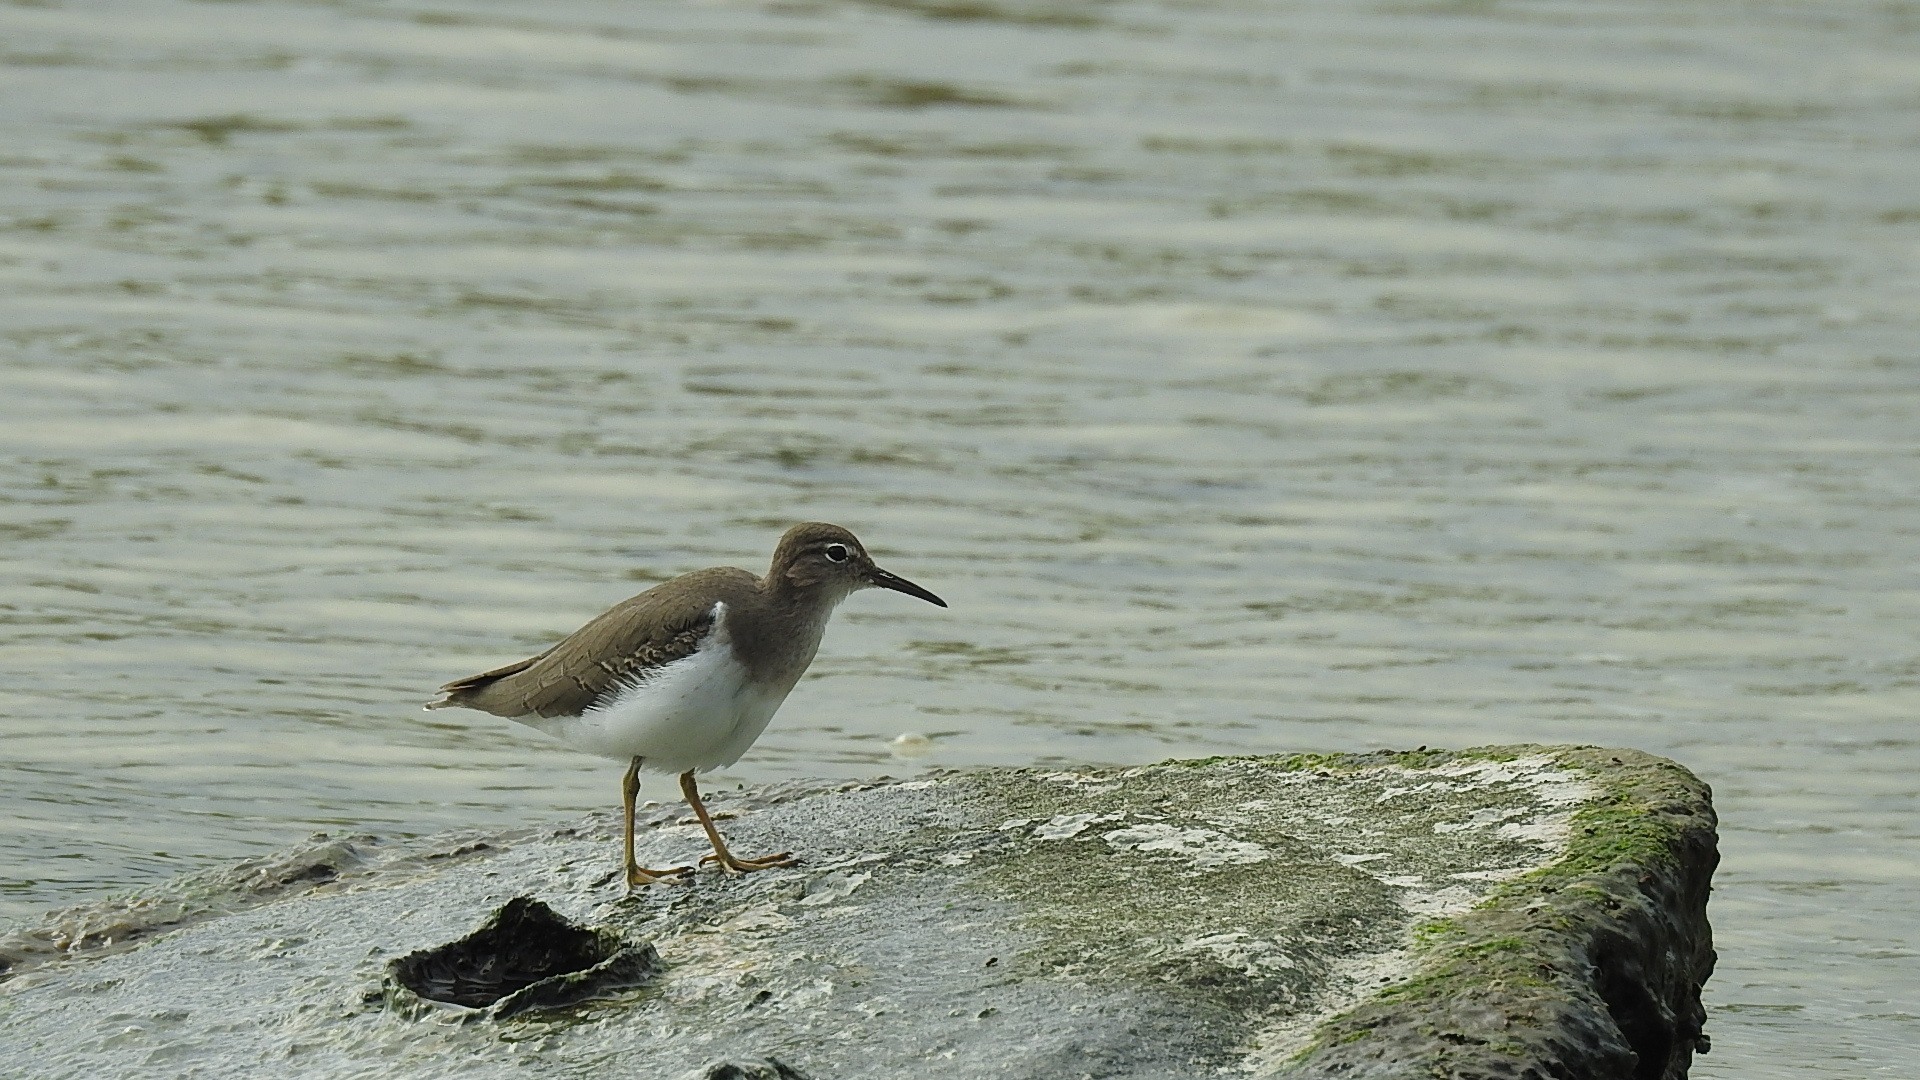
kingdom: Animalia
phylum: Chordata
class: Aves
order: Charadriiformes
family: Scolopacidae
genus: Actitis
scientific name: Actitis macularius
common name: Spotted sandpiper
